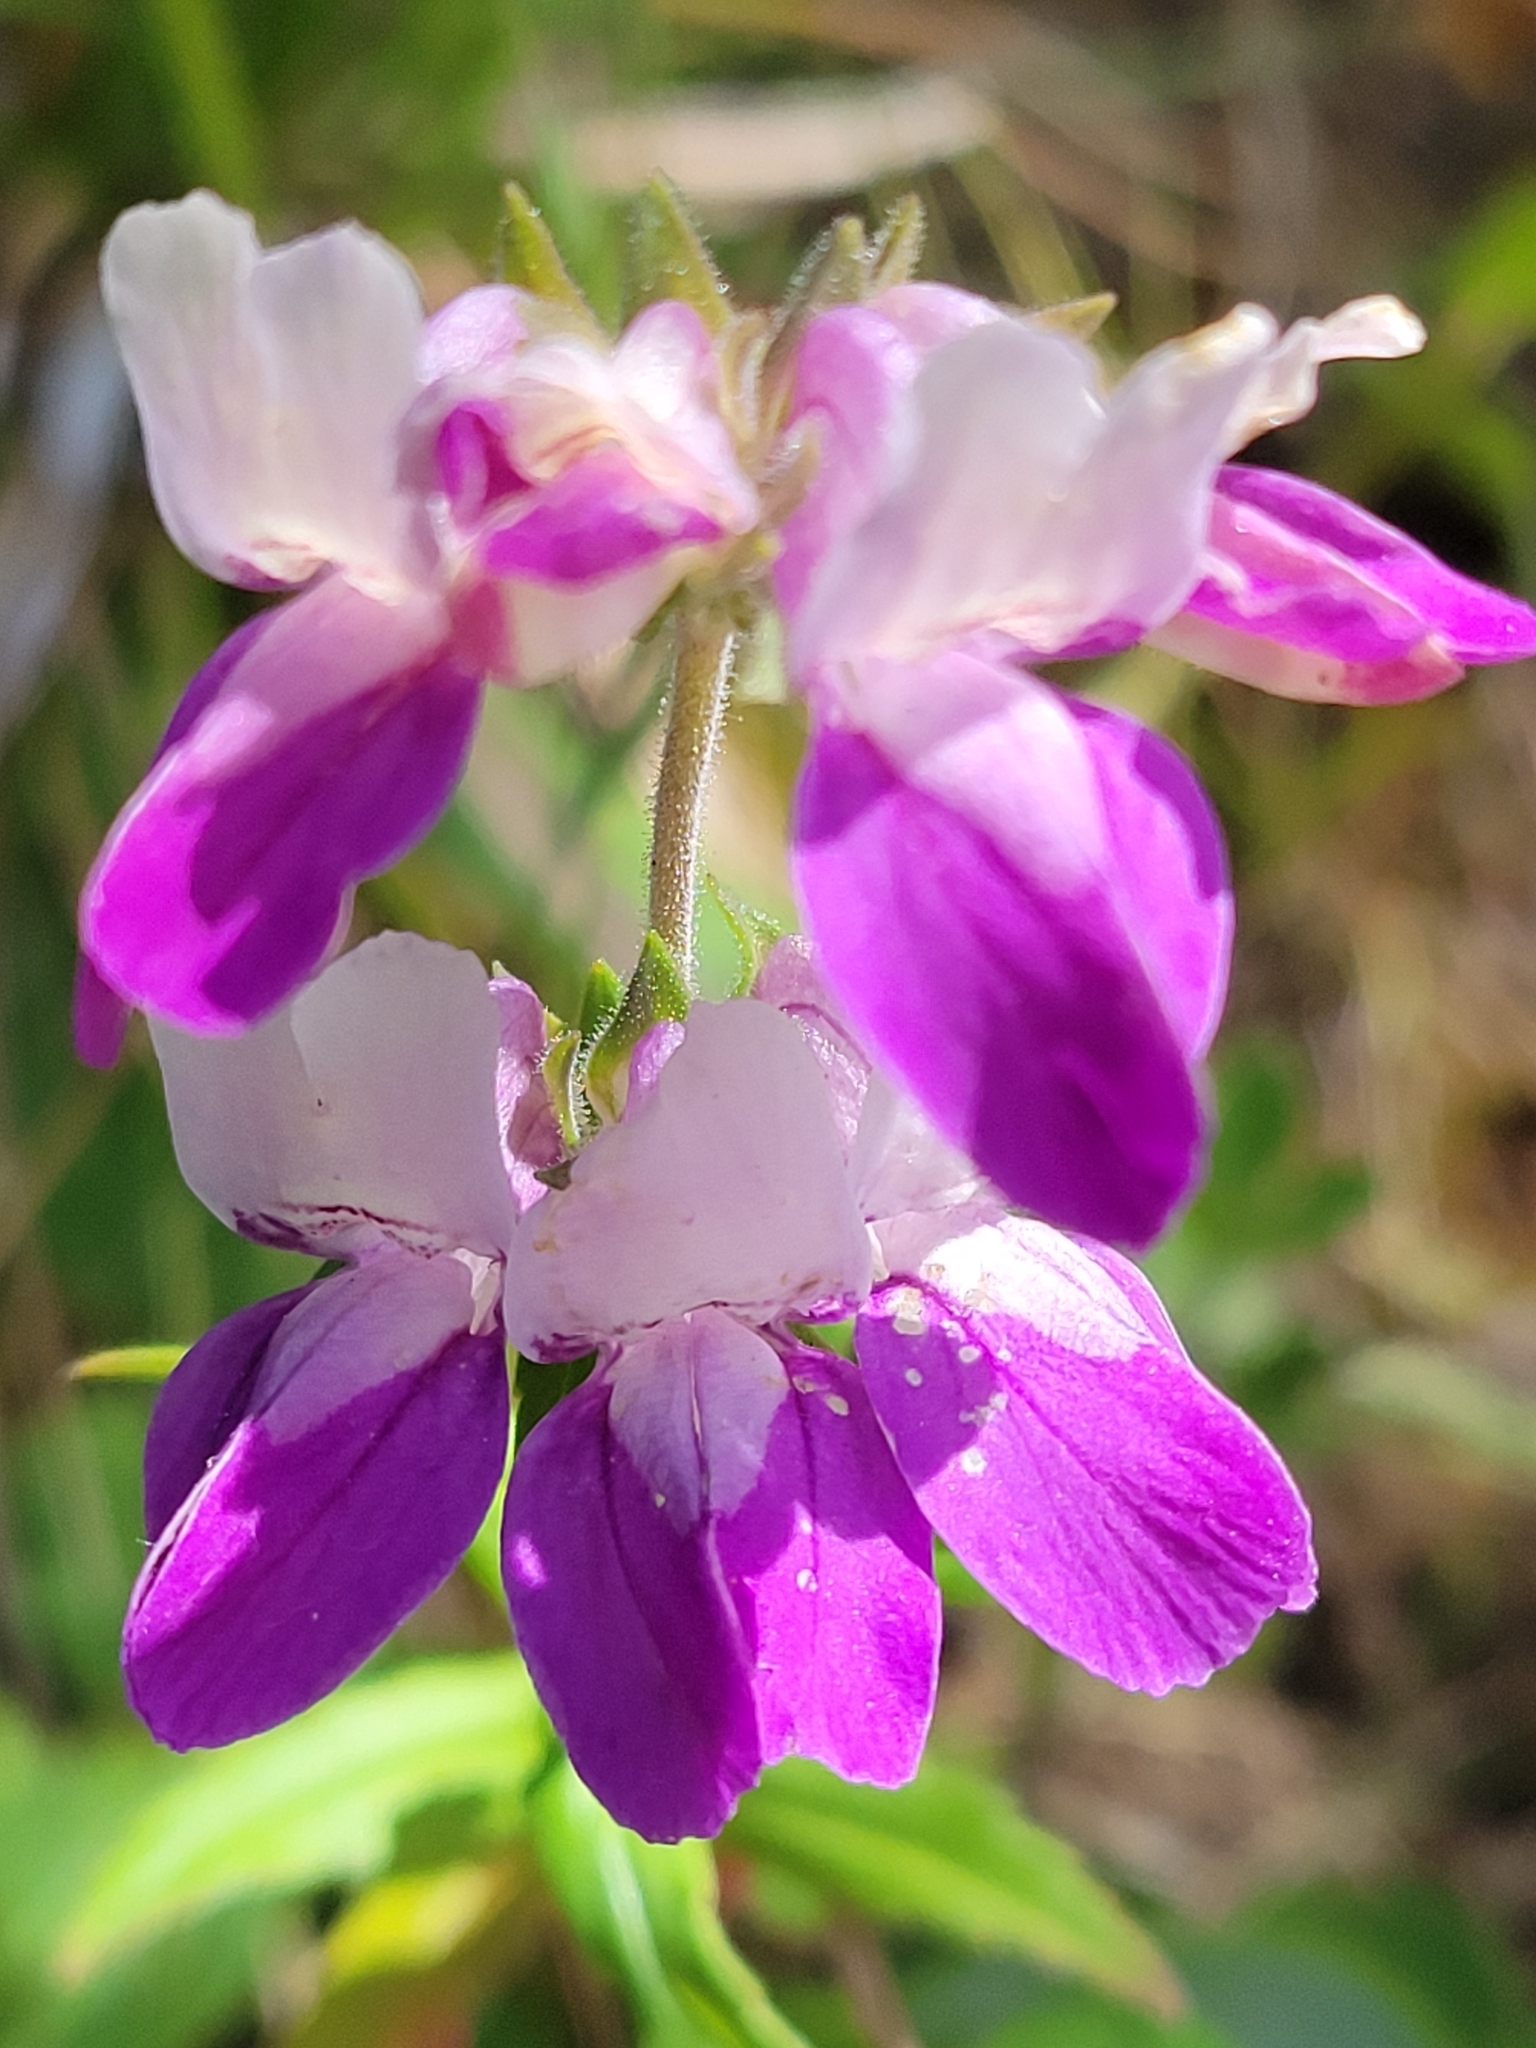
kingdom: Plantae
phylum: Tracheophyta
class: Magnoliopsida
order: Lamiales
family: Plantaginaceae
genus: Collinsia
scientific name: Collinsia heterophylla
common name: Chinese-houses
